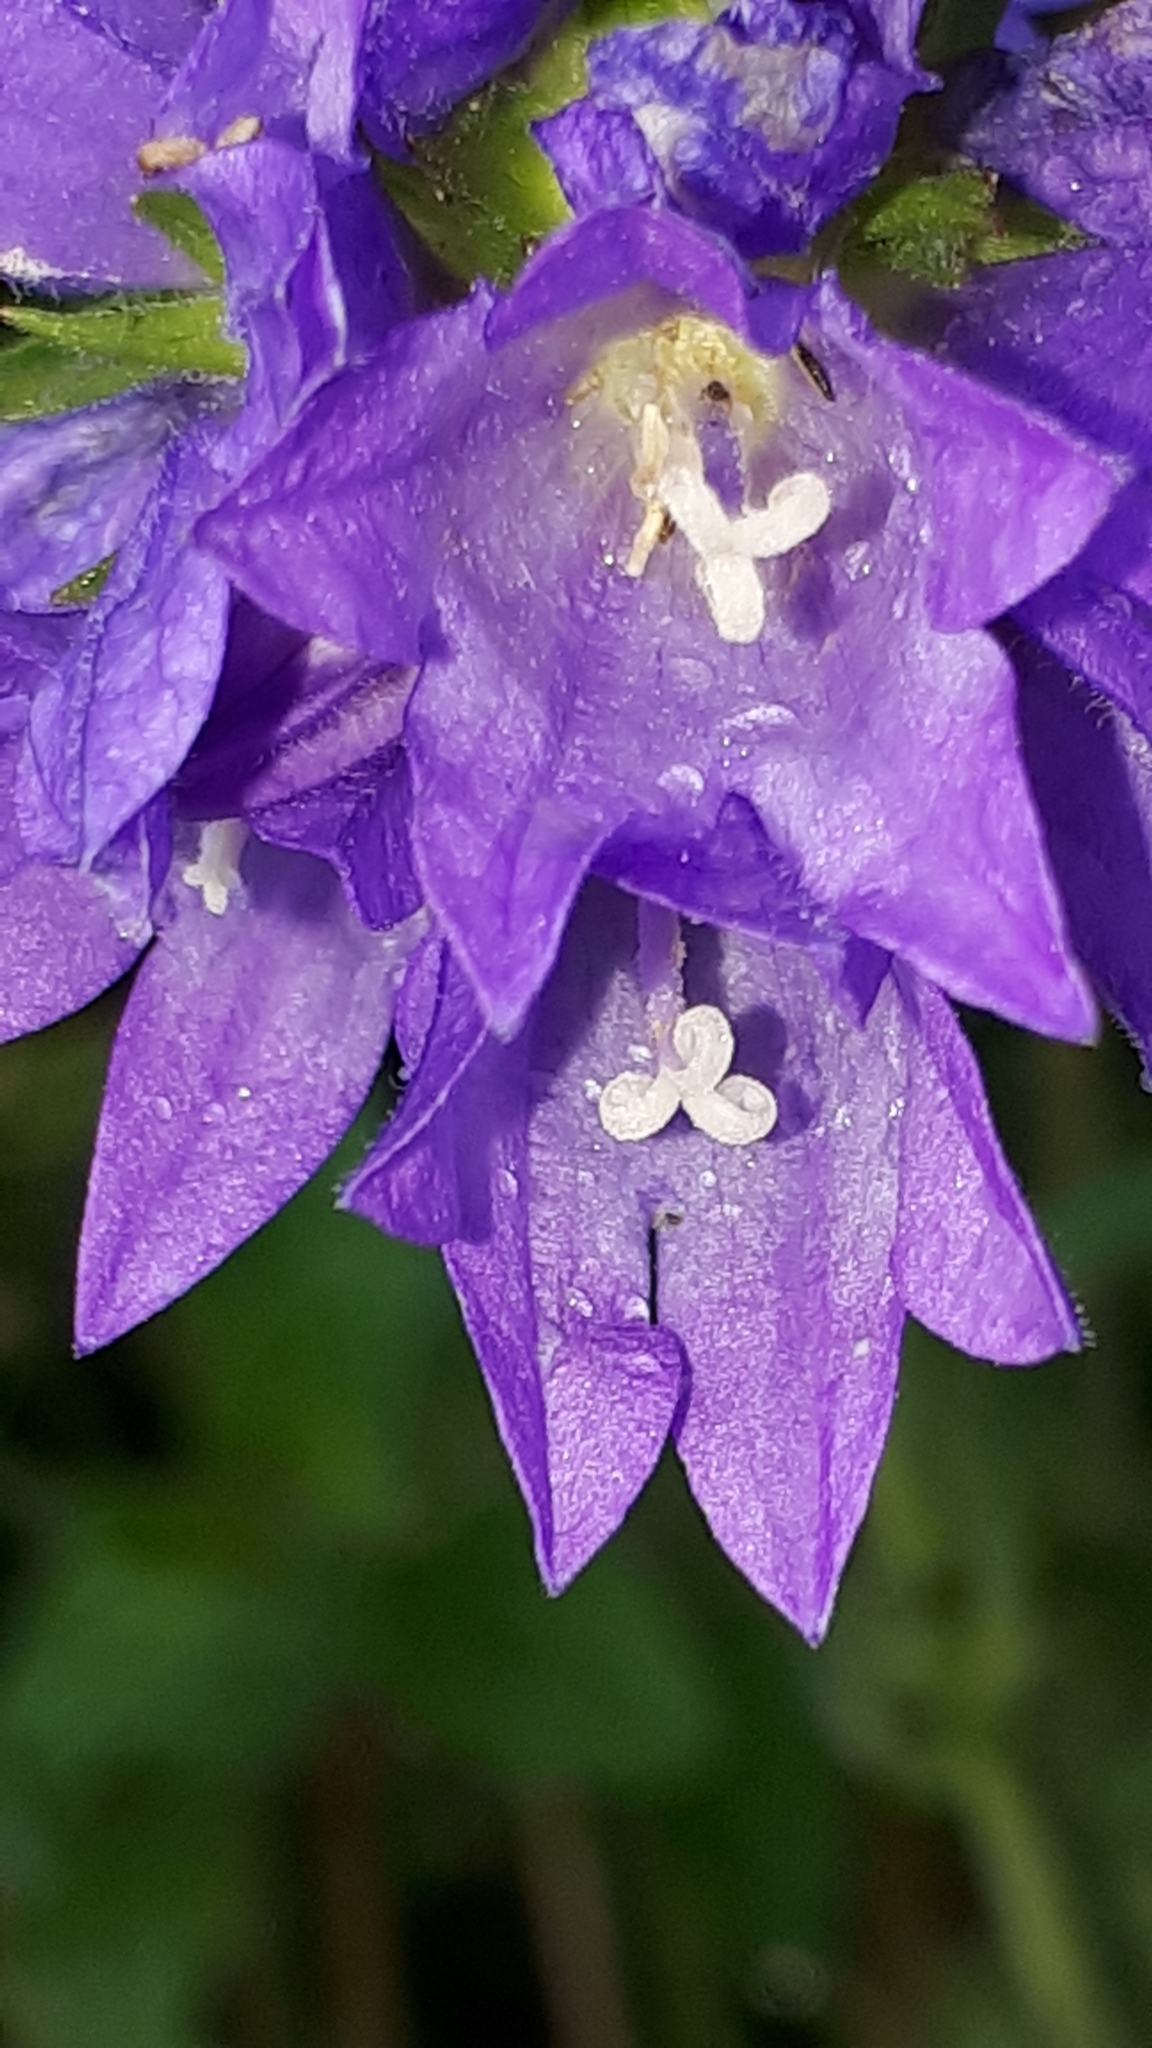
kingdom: Plantae
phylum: Tracheophyta
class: Magnoliopsida
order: Asterales
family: Campanulaceae
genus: Campanula
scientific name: Campanula glomerata
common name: Clustered bellflower
